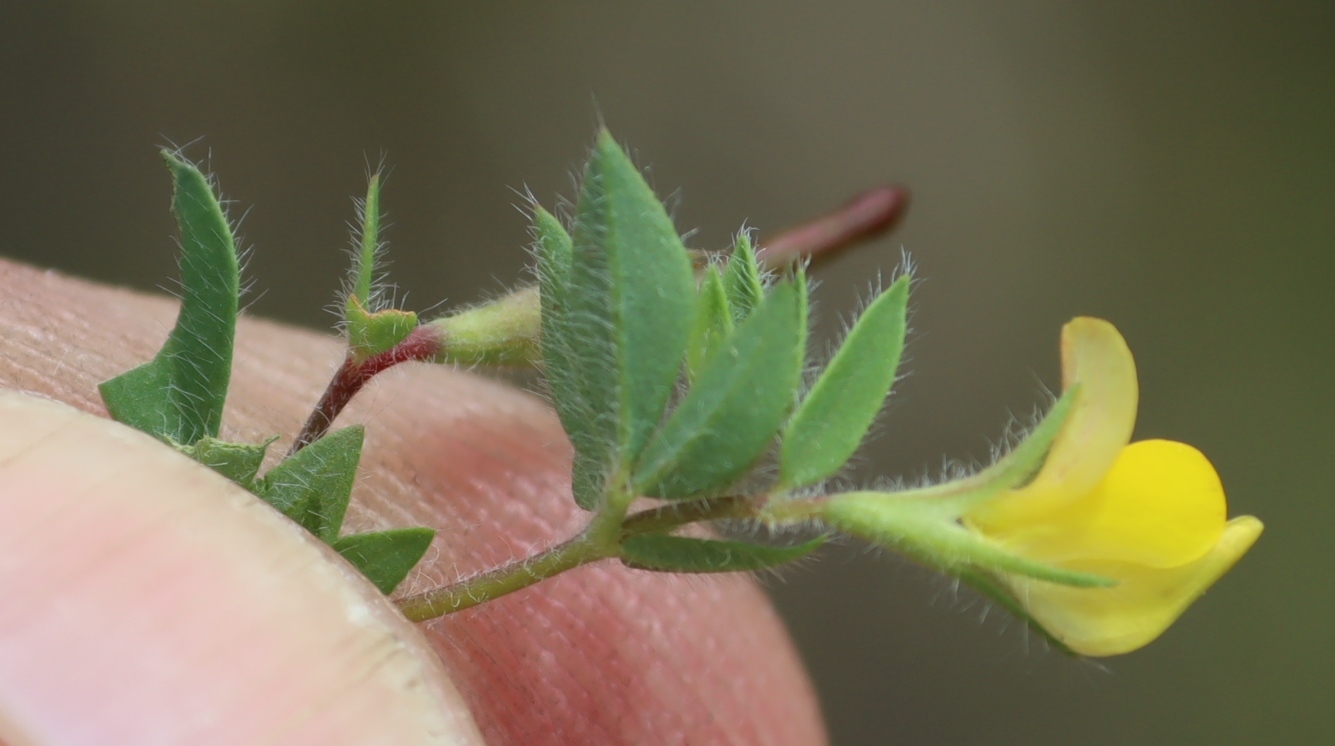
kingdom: Plantae
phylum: Tracheophyta
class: Magnoliopsida
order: Fabales
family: Fabaceae
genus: Lotus
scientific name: Lotus subbiflorus
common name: Hairy bird's-foot trefoil
